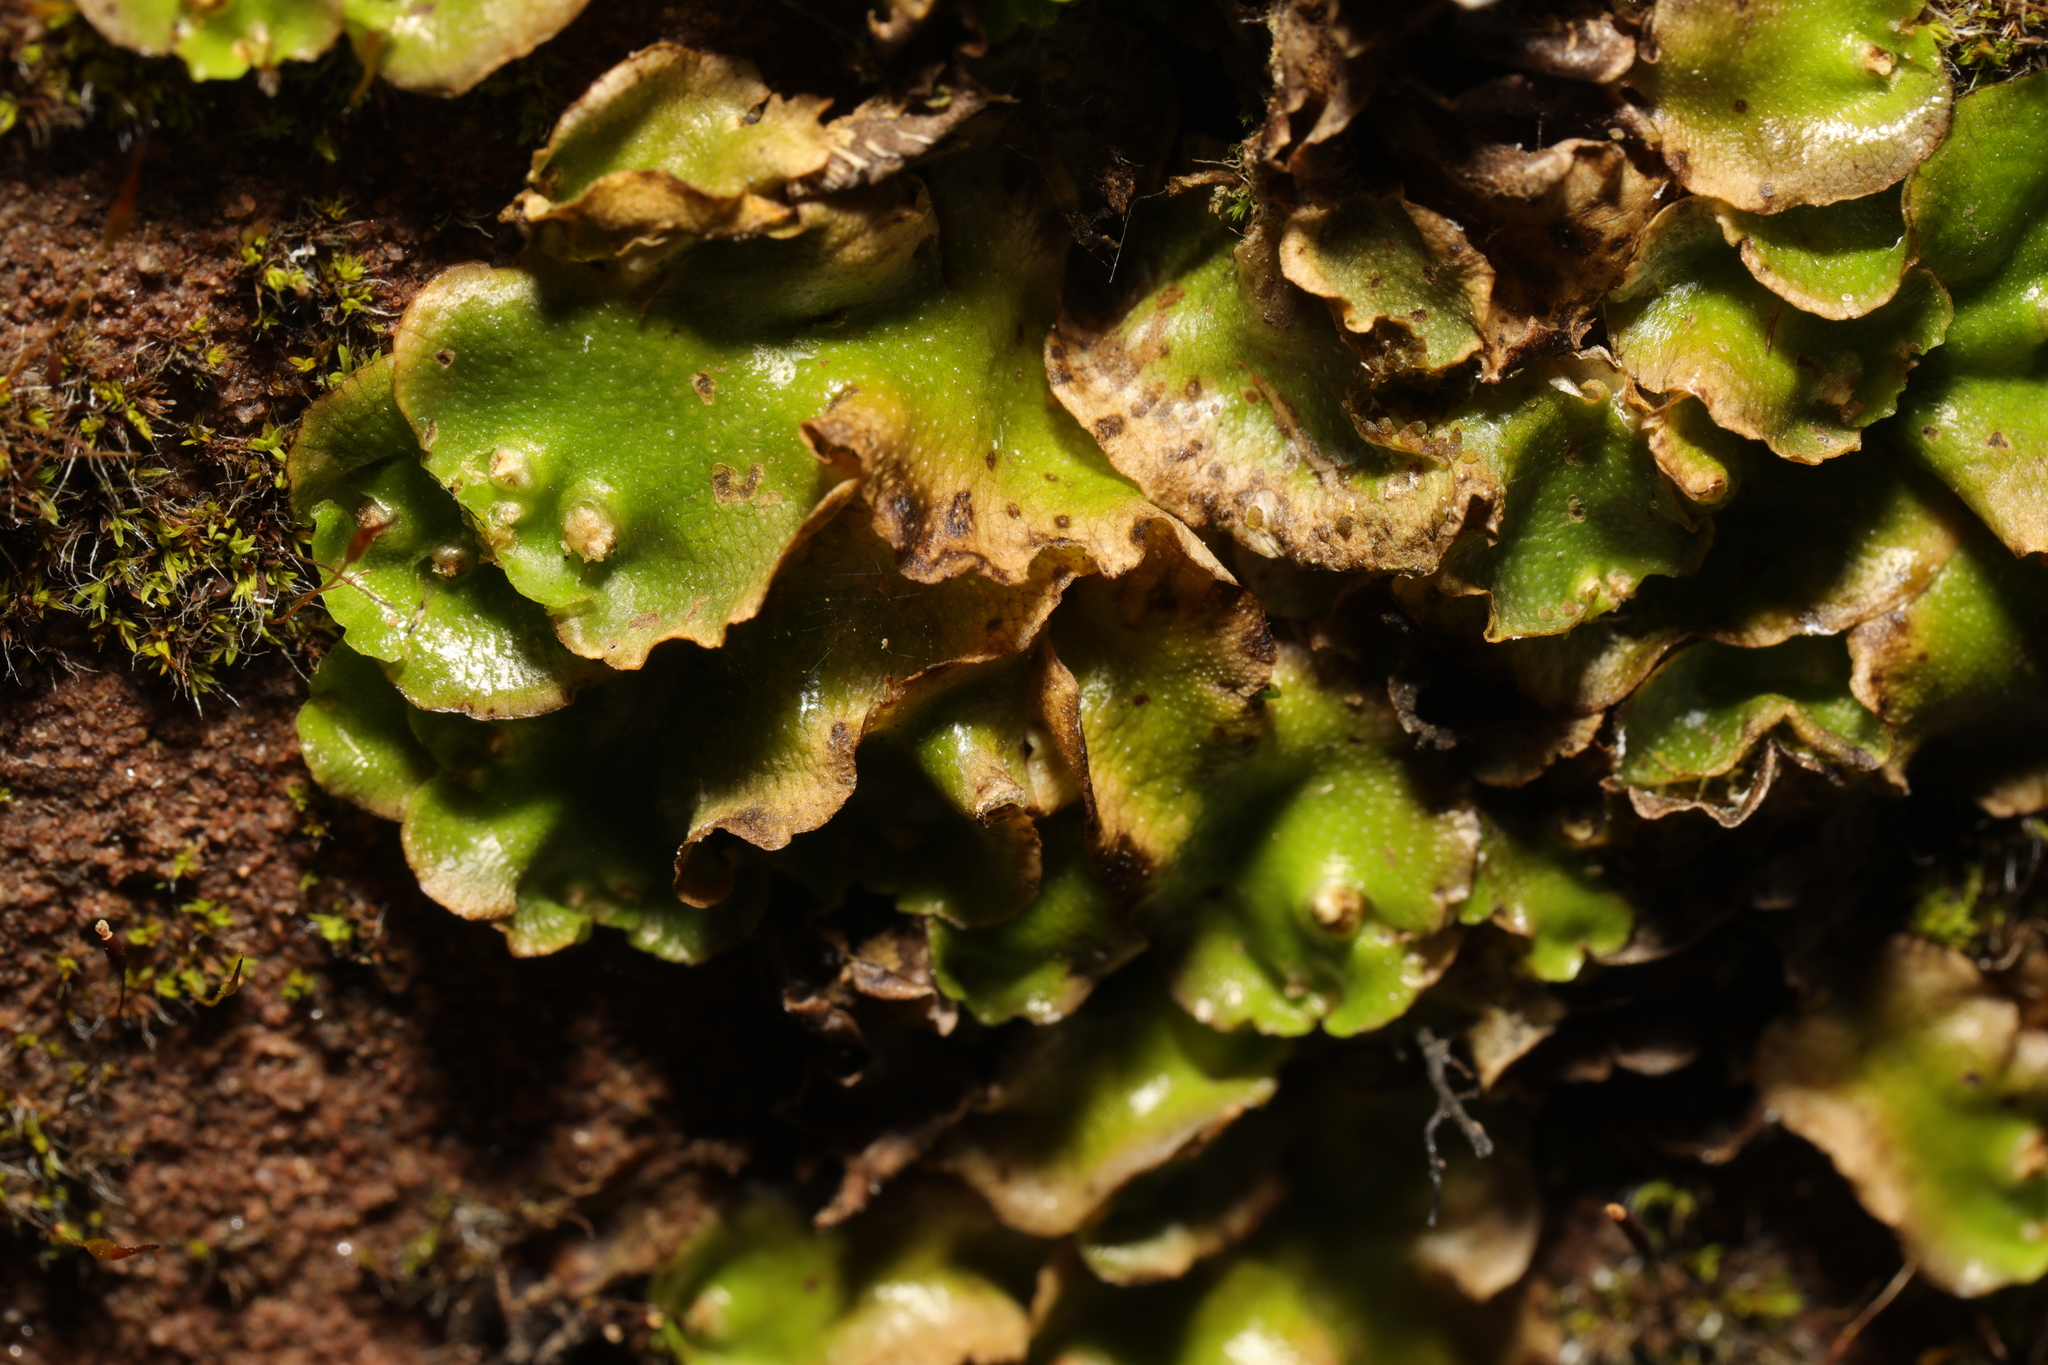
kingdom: Plantae
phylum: Marchantiophyta
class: Marchantiopsida
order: Lunulariales
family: Lunulariaceae
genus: Lunularia
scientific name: Lunularia cruciata
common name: Crescent-cup liverwort
